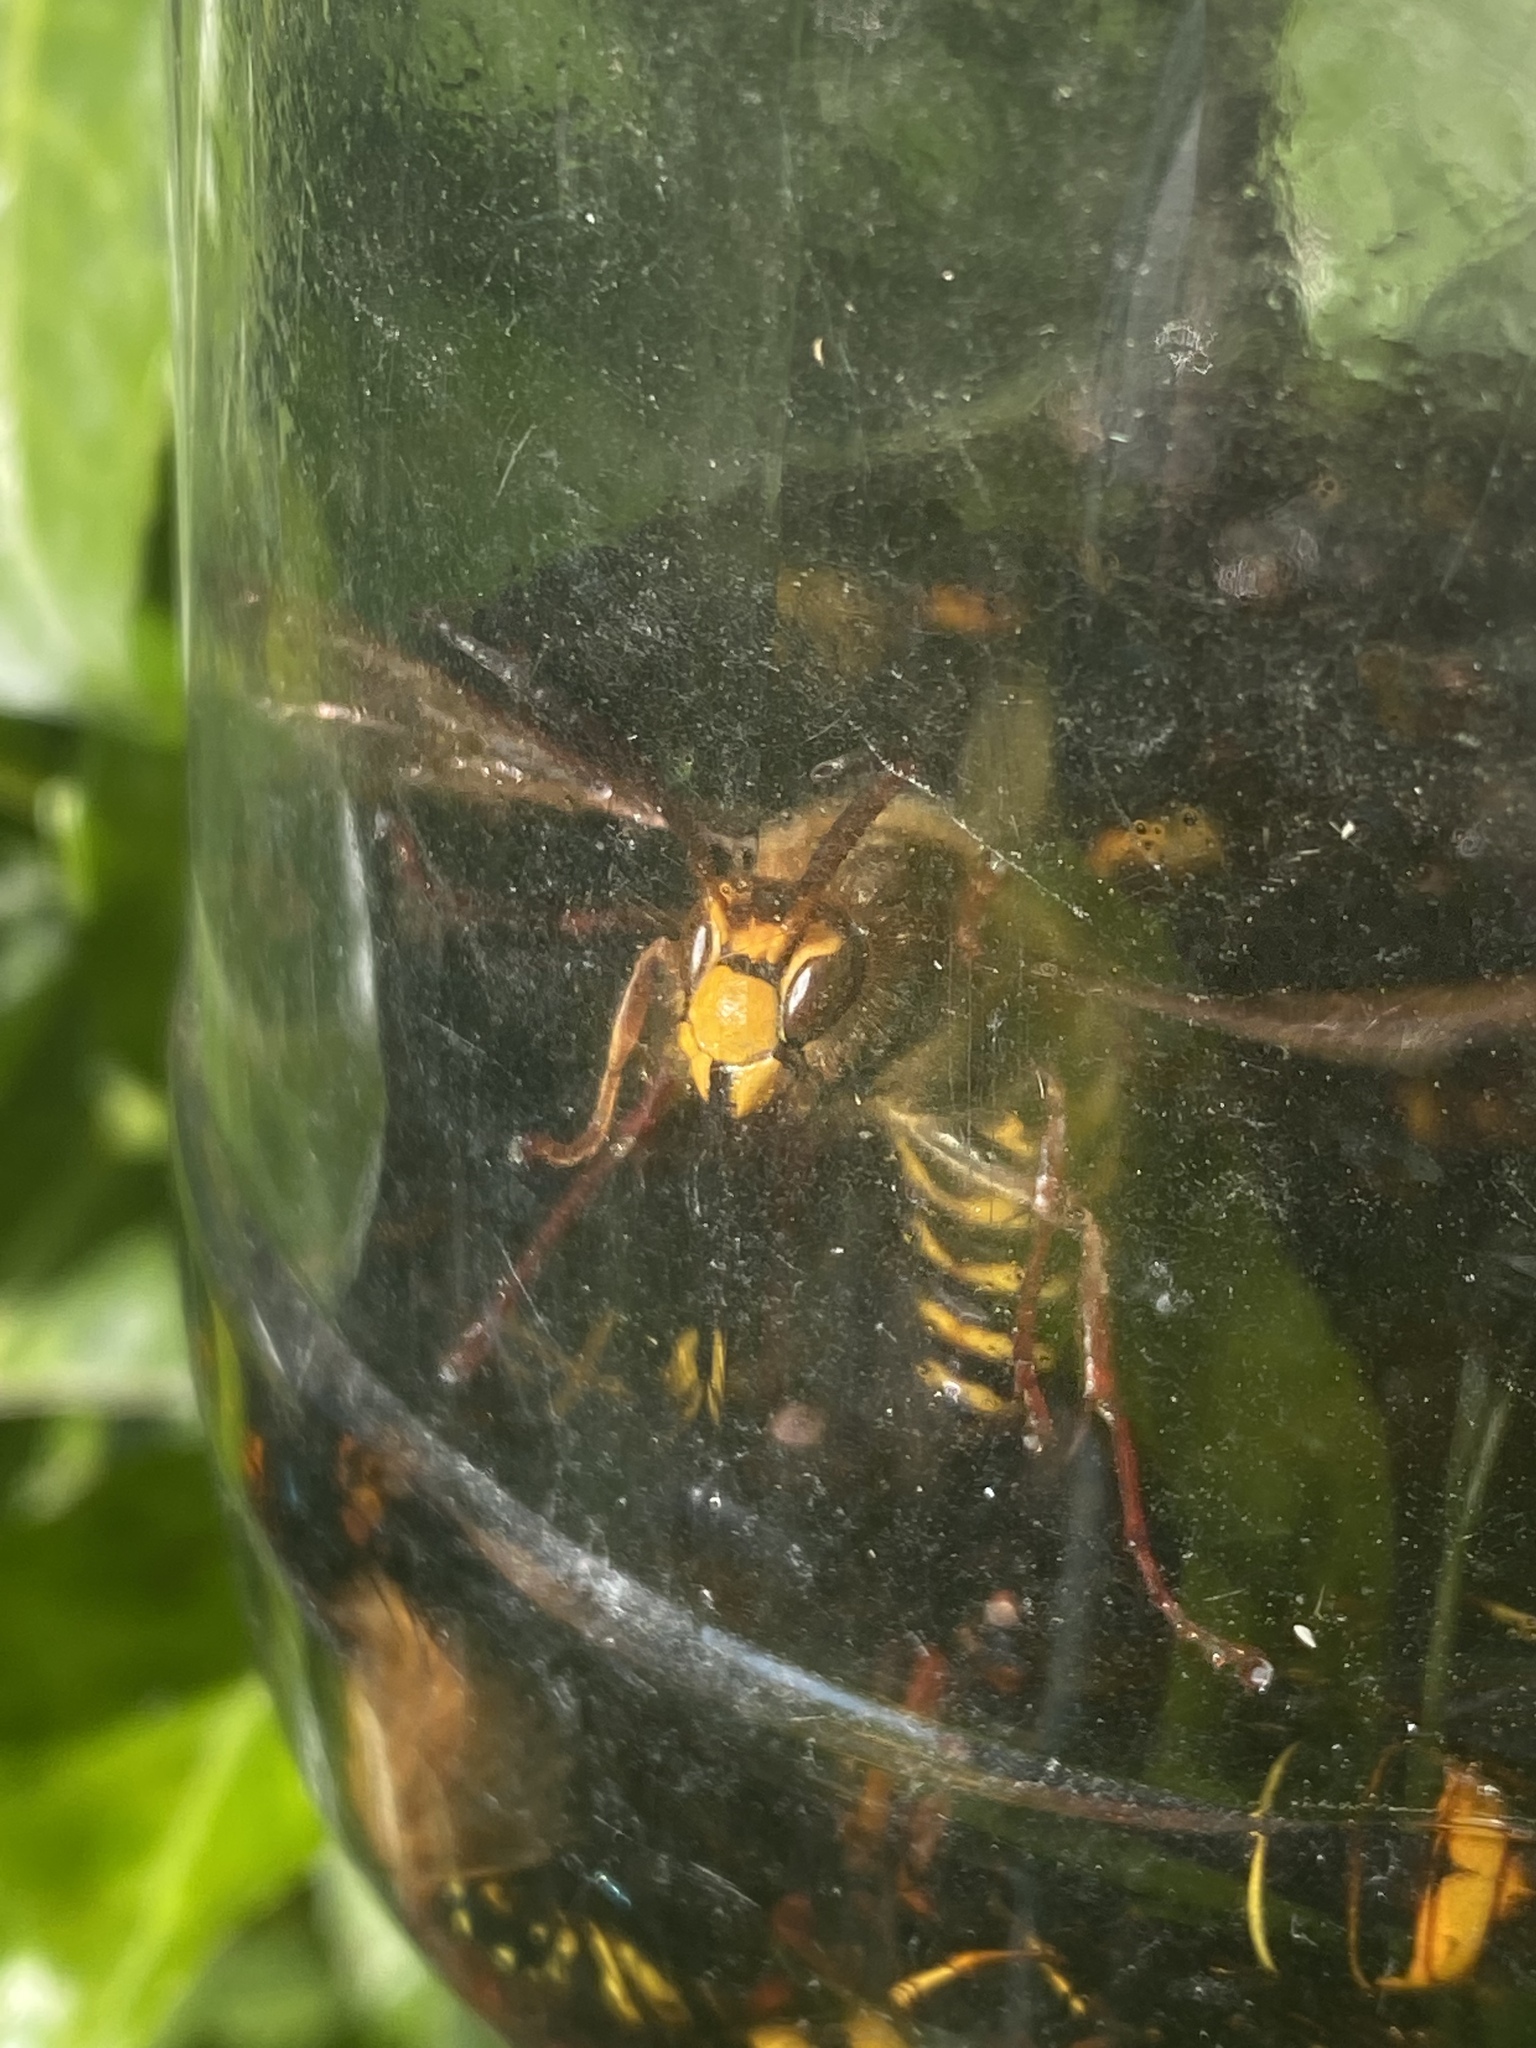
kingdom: Animalia
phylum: Arthropoda
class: Insecta
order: Hymenoptera
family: Vespidae
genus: Vespa
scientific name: Vespa crabro
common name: Hornet
